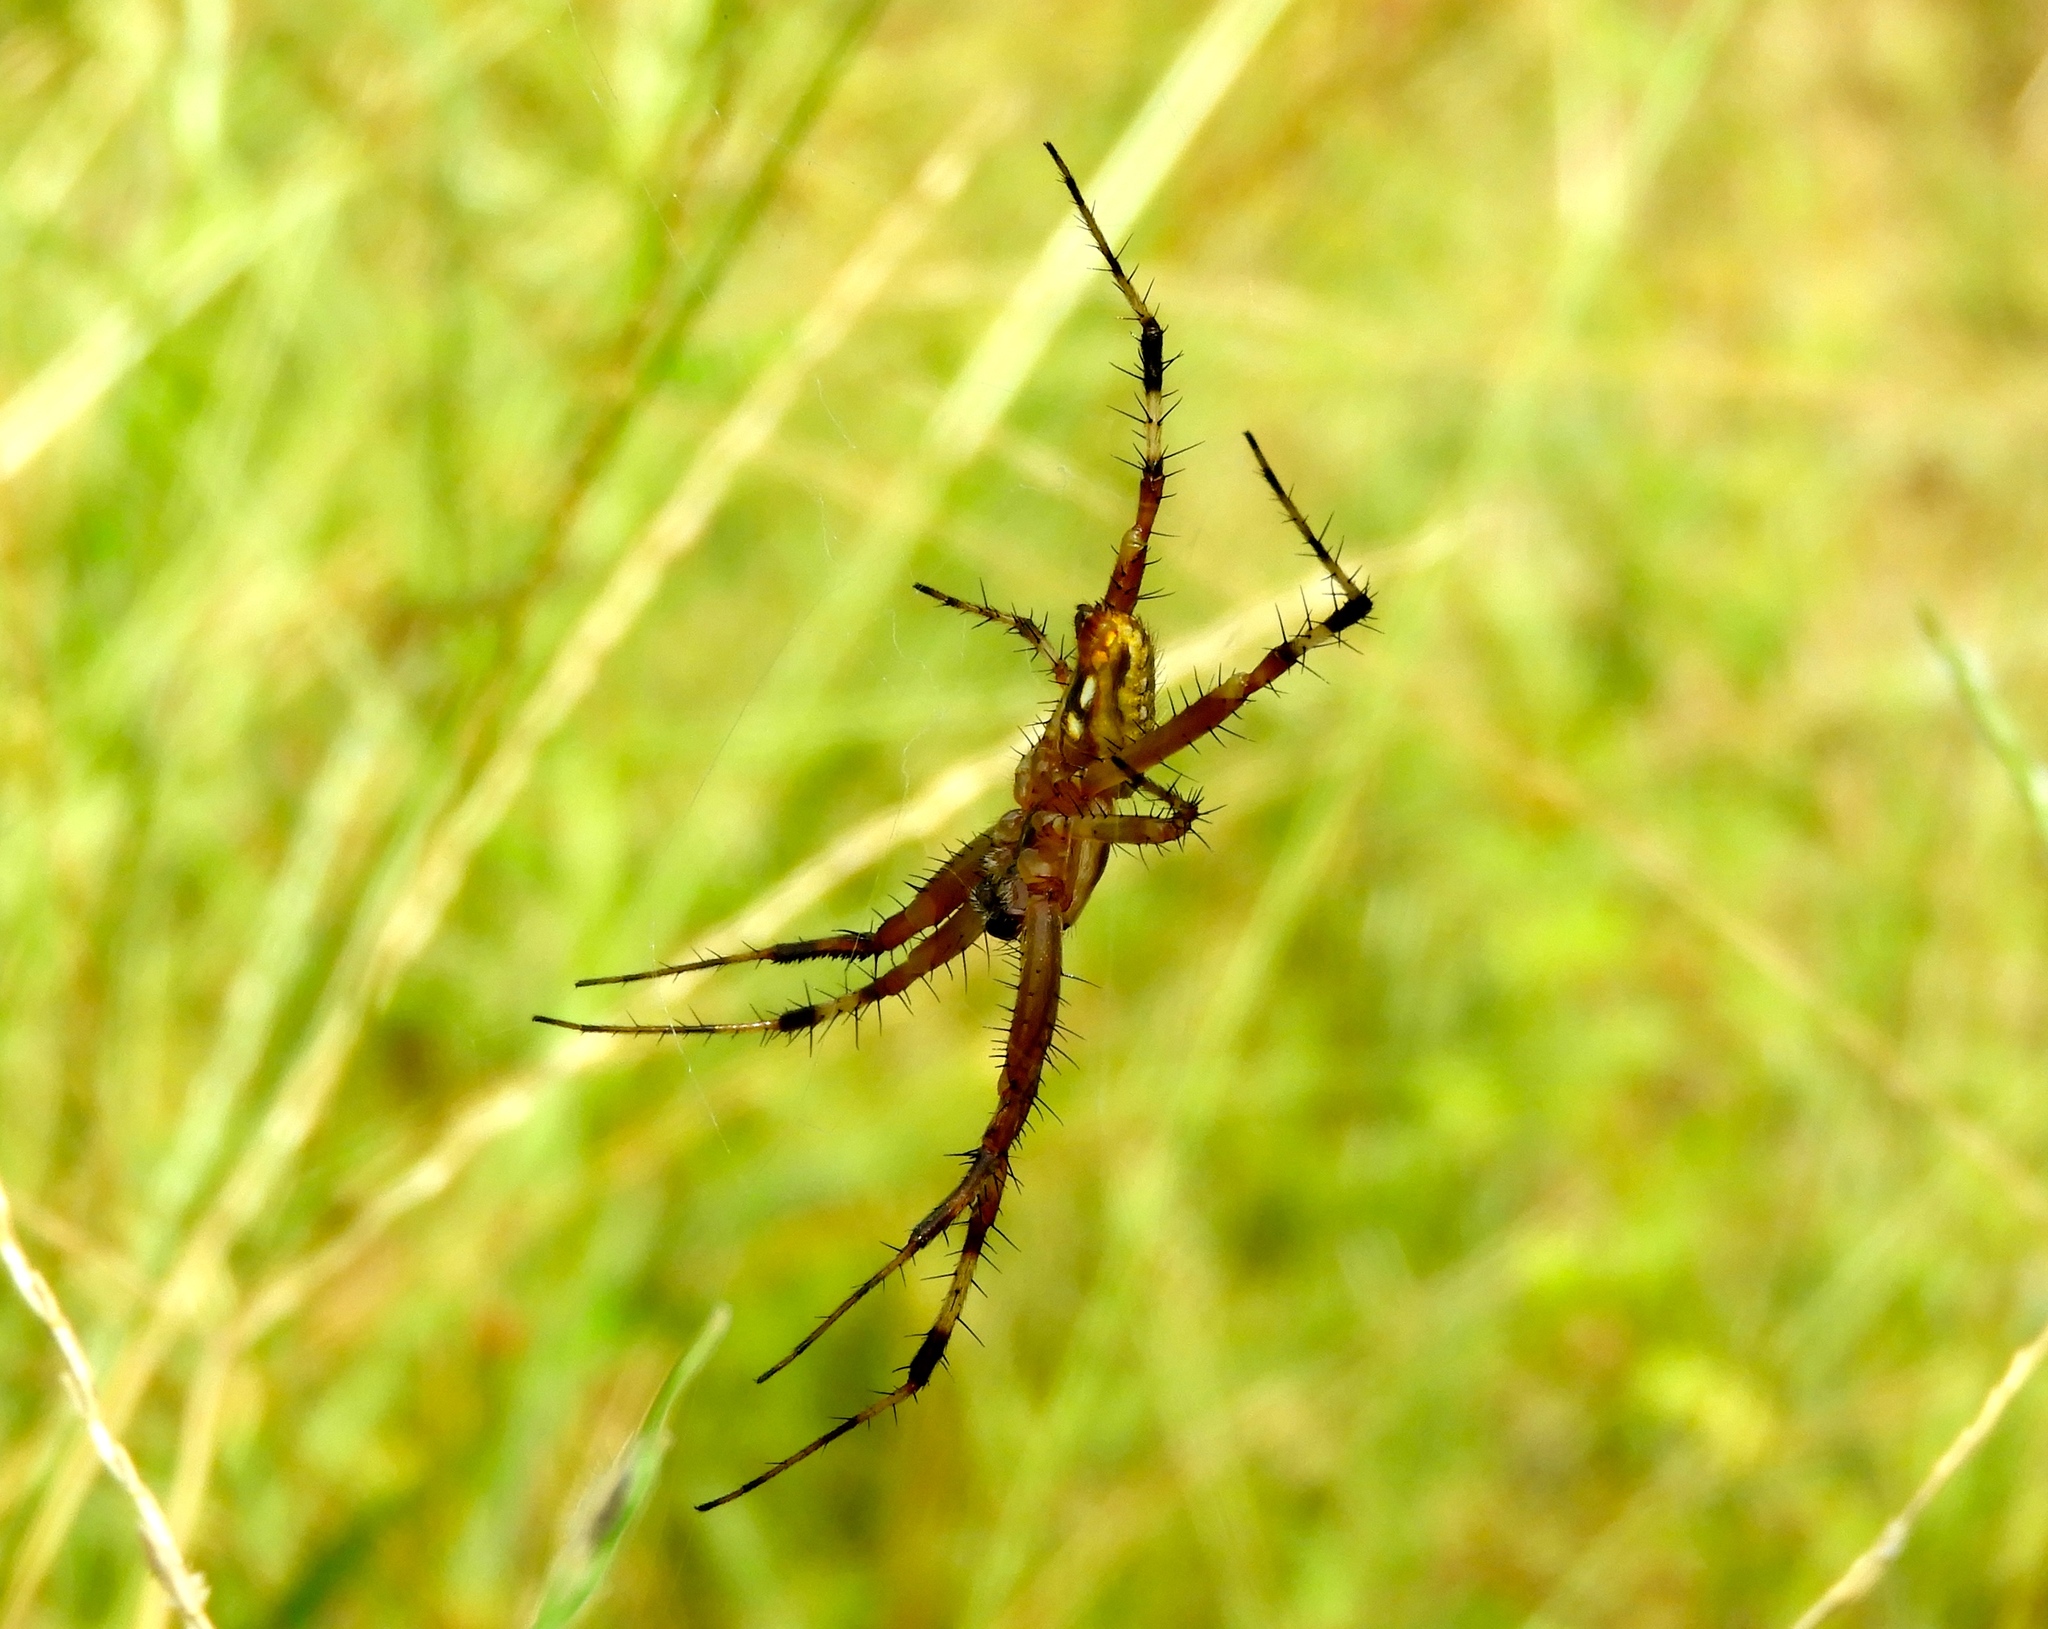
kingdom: Animalia
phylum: Arthropoda
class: Arachnida
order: Araneae
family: Araneidae
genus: Neoscona
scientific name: Neoscona
